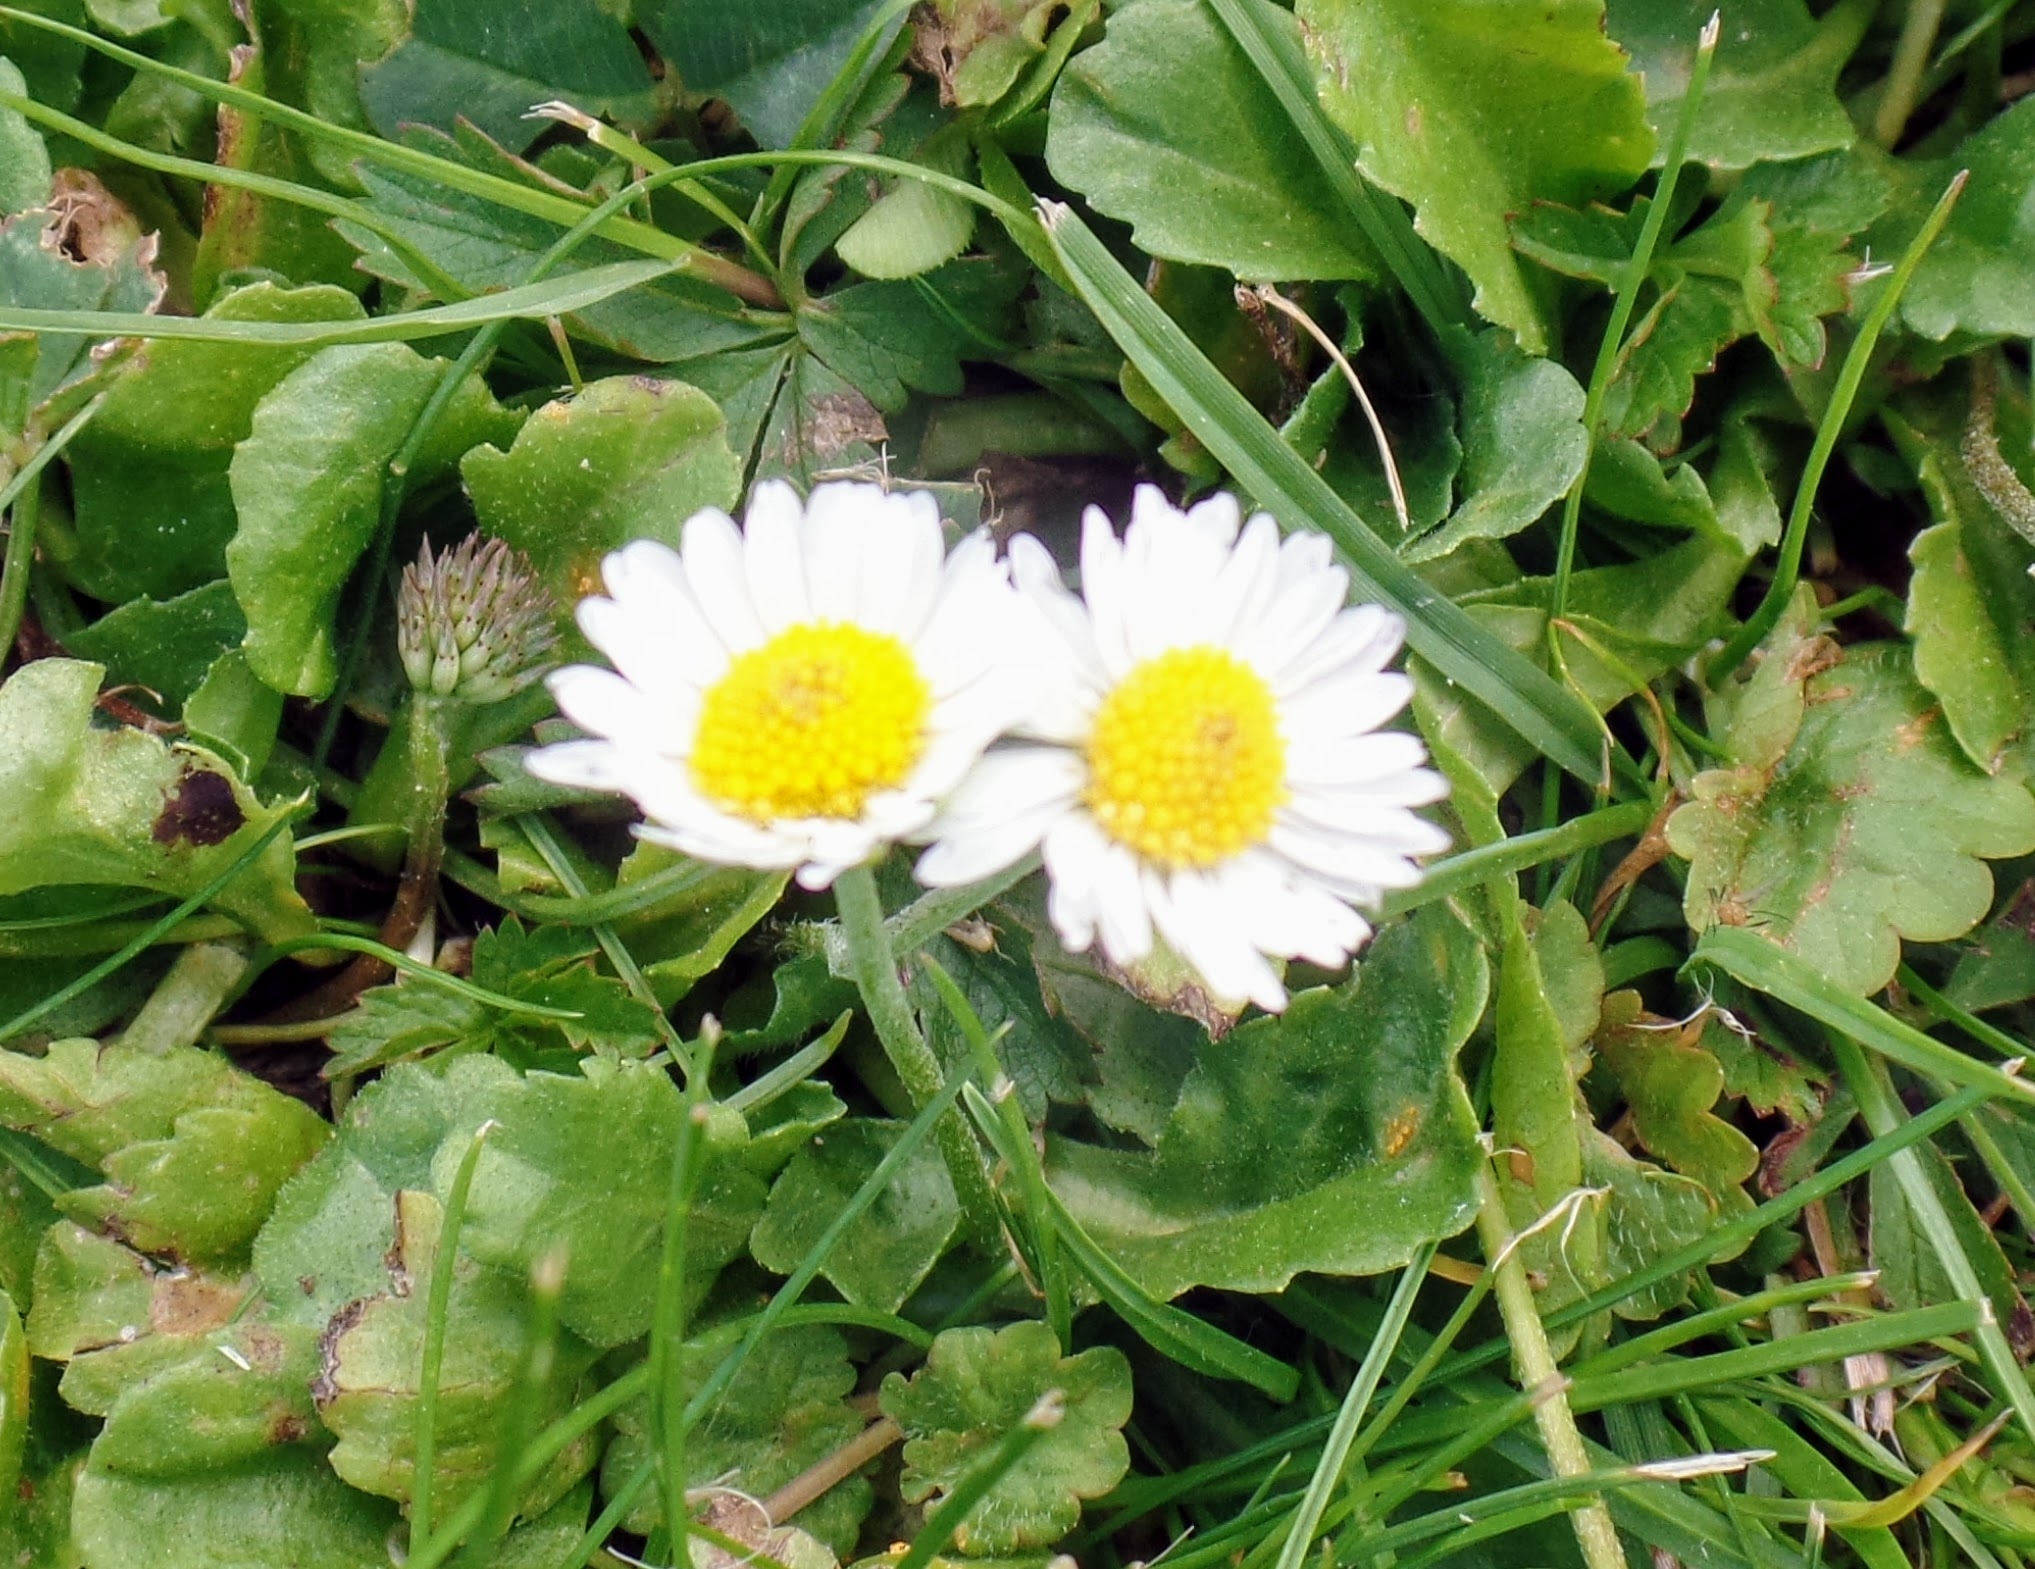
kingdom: Plantae
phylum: Tracheophyta
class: Magnoliopsida
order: Asterales
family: Asteraceae
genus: Bellis
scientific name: Bellis perennis
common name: Lawndaisy
